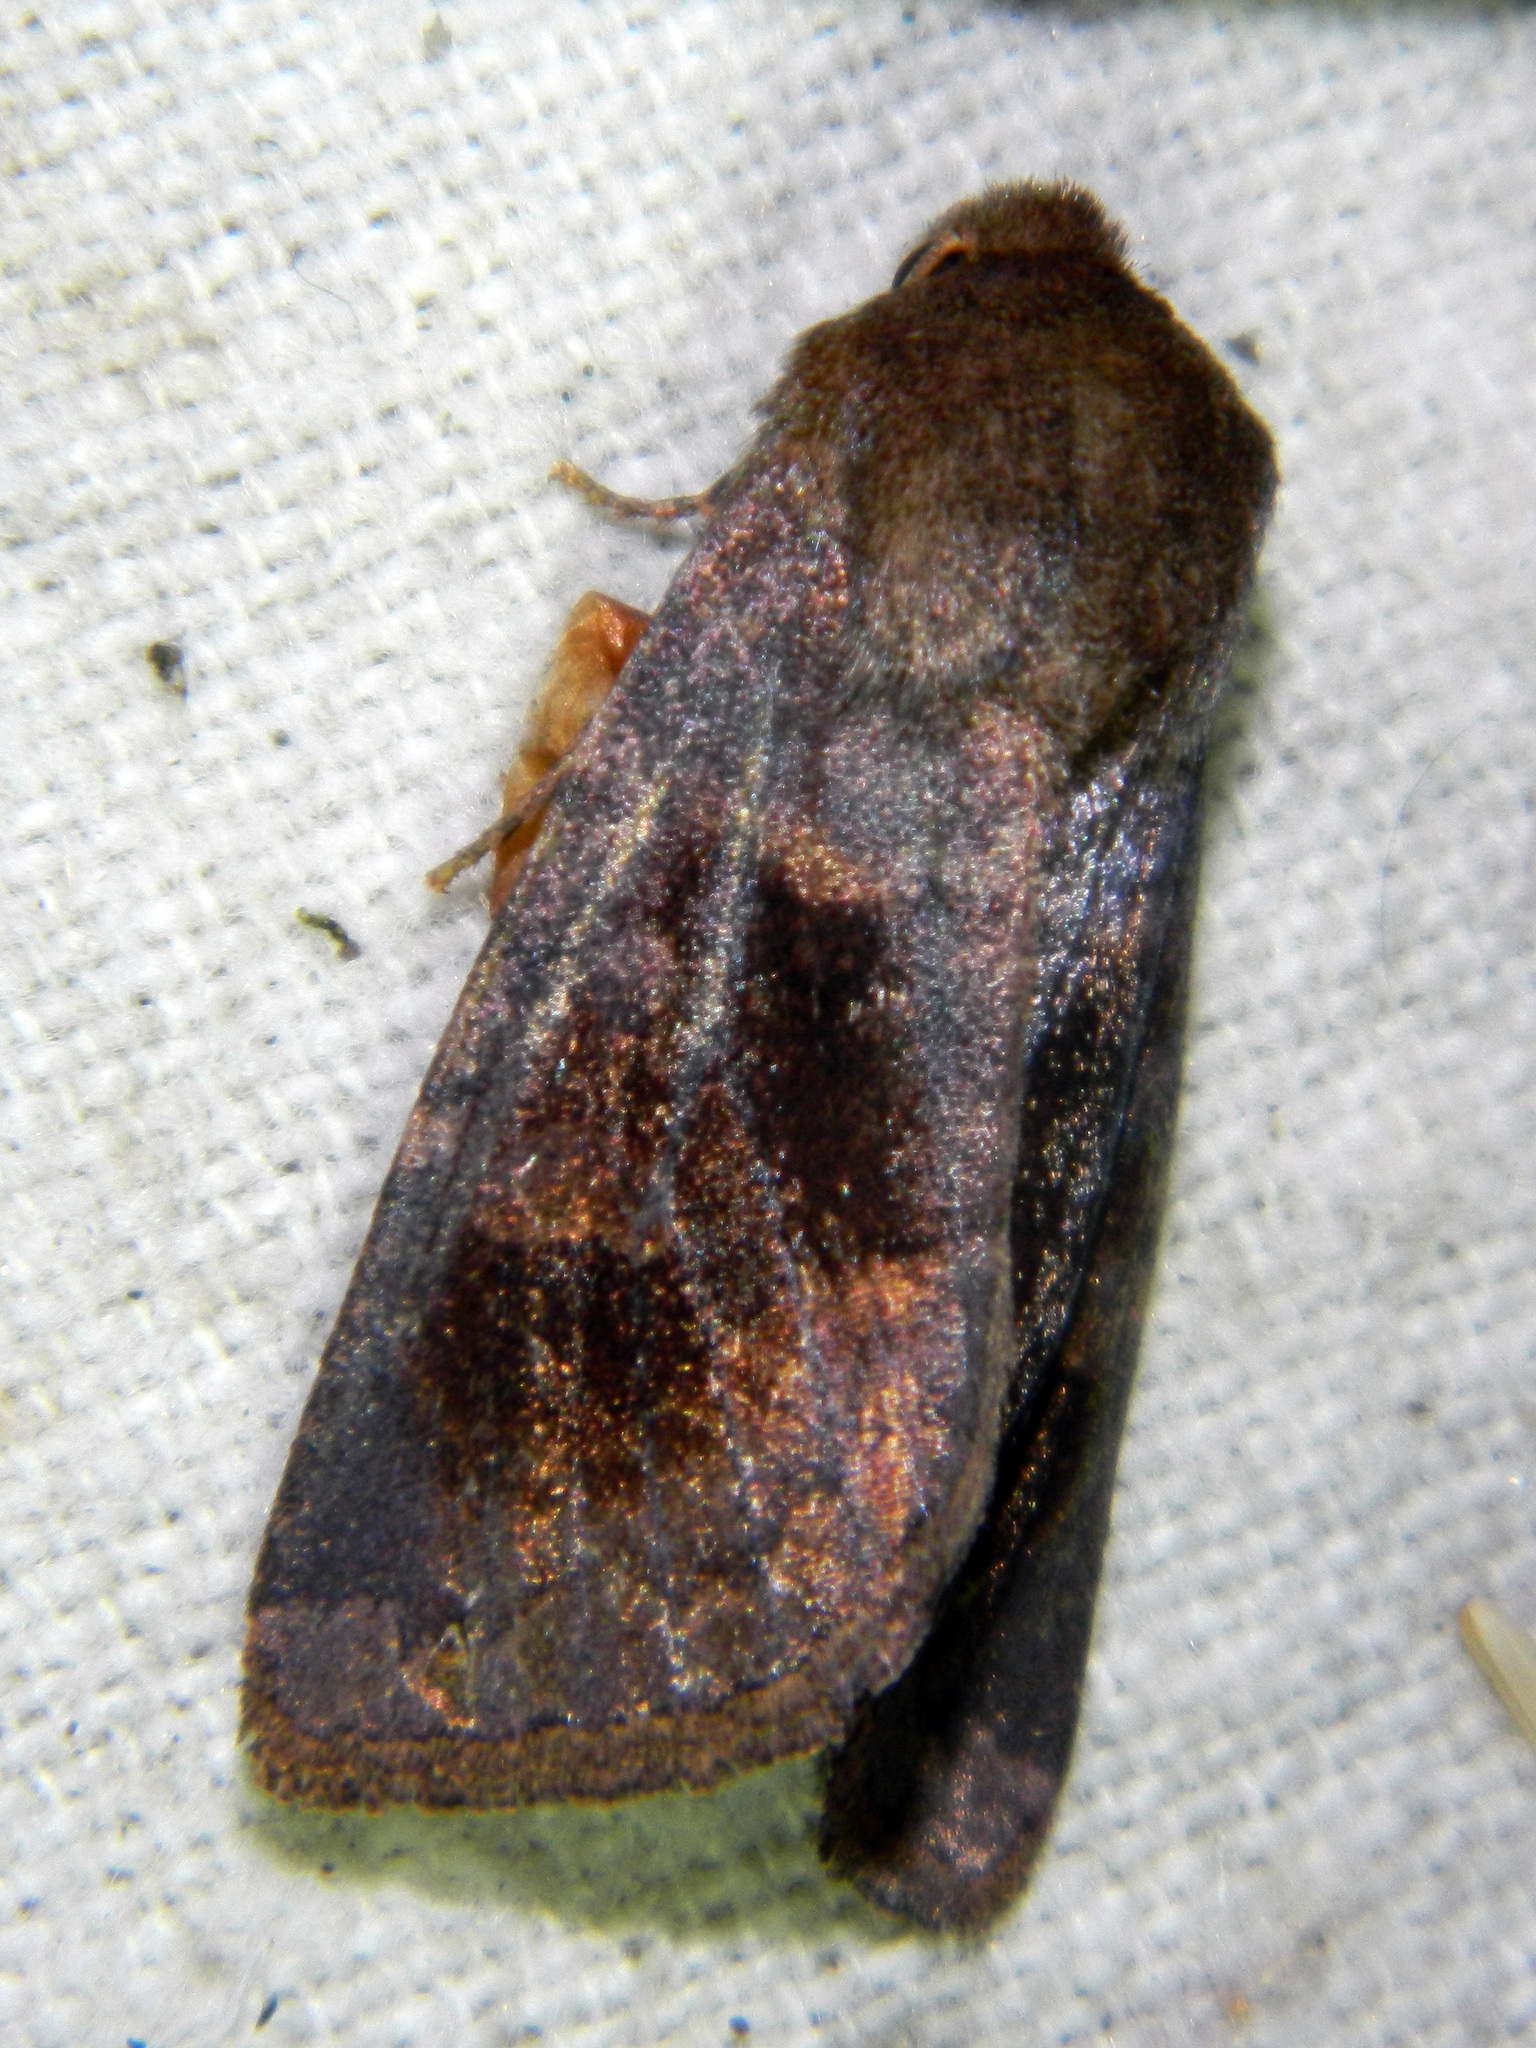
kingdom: Animalia
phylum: Arthropoda
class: Insecta
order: Lepidoptera
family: Noctuidae
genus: Nephelodes
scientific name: Nephelodes minians
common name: Bronzed cutworm
